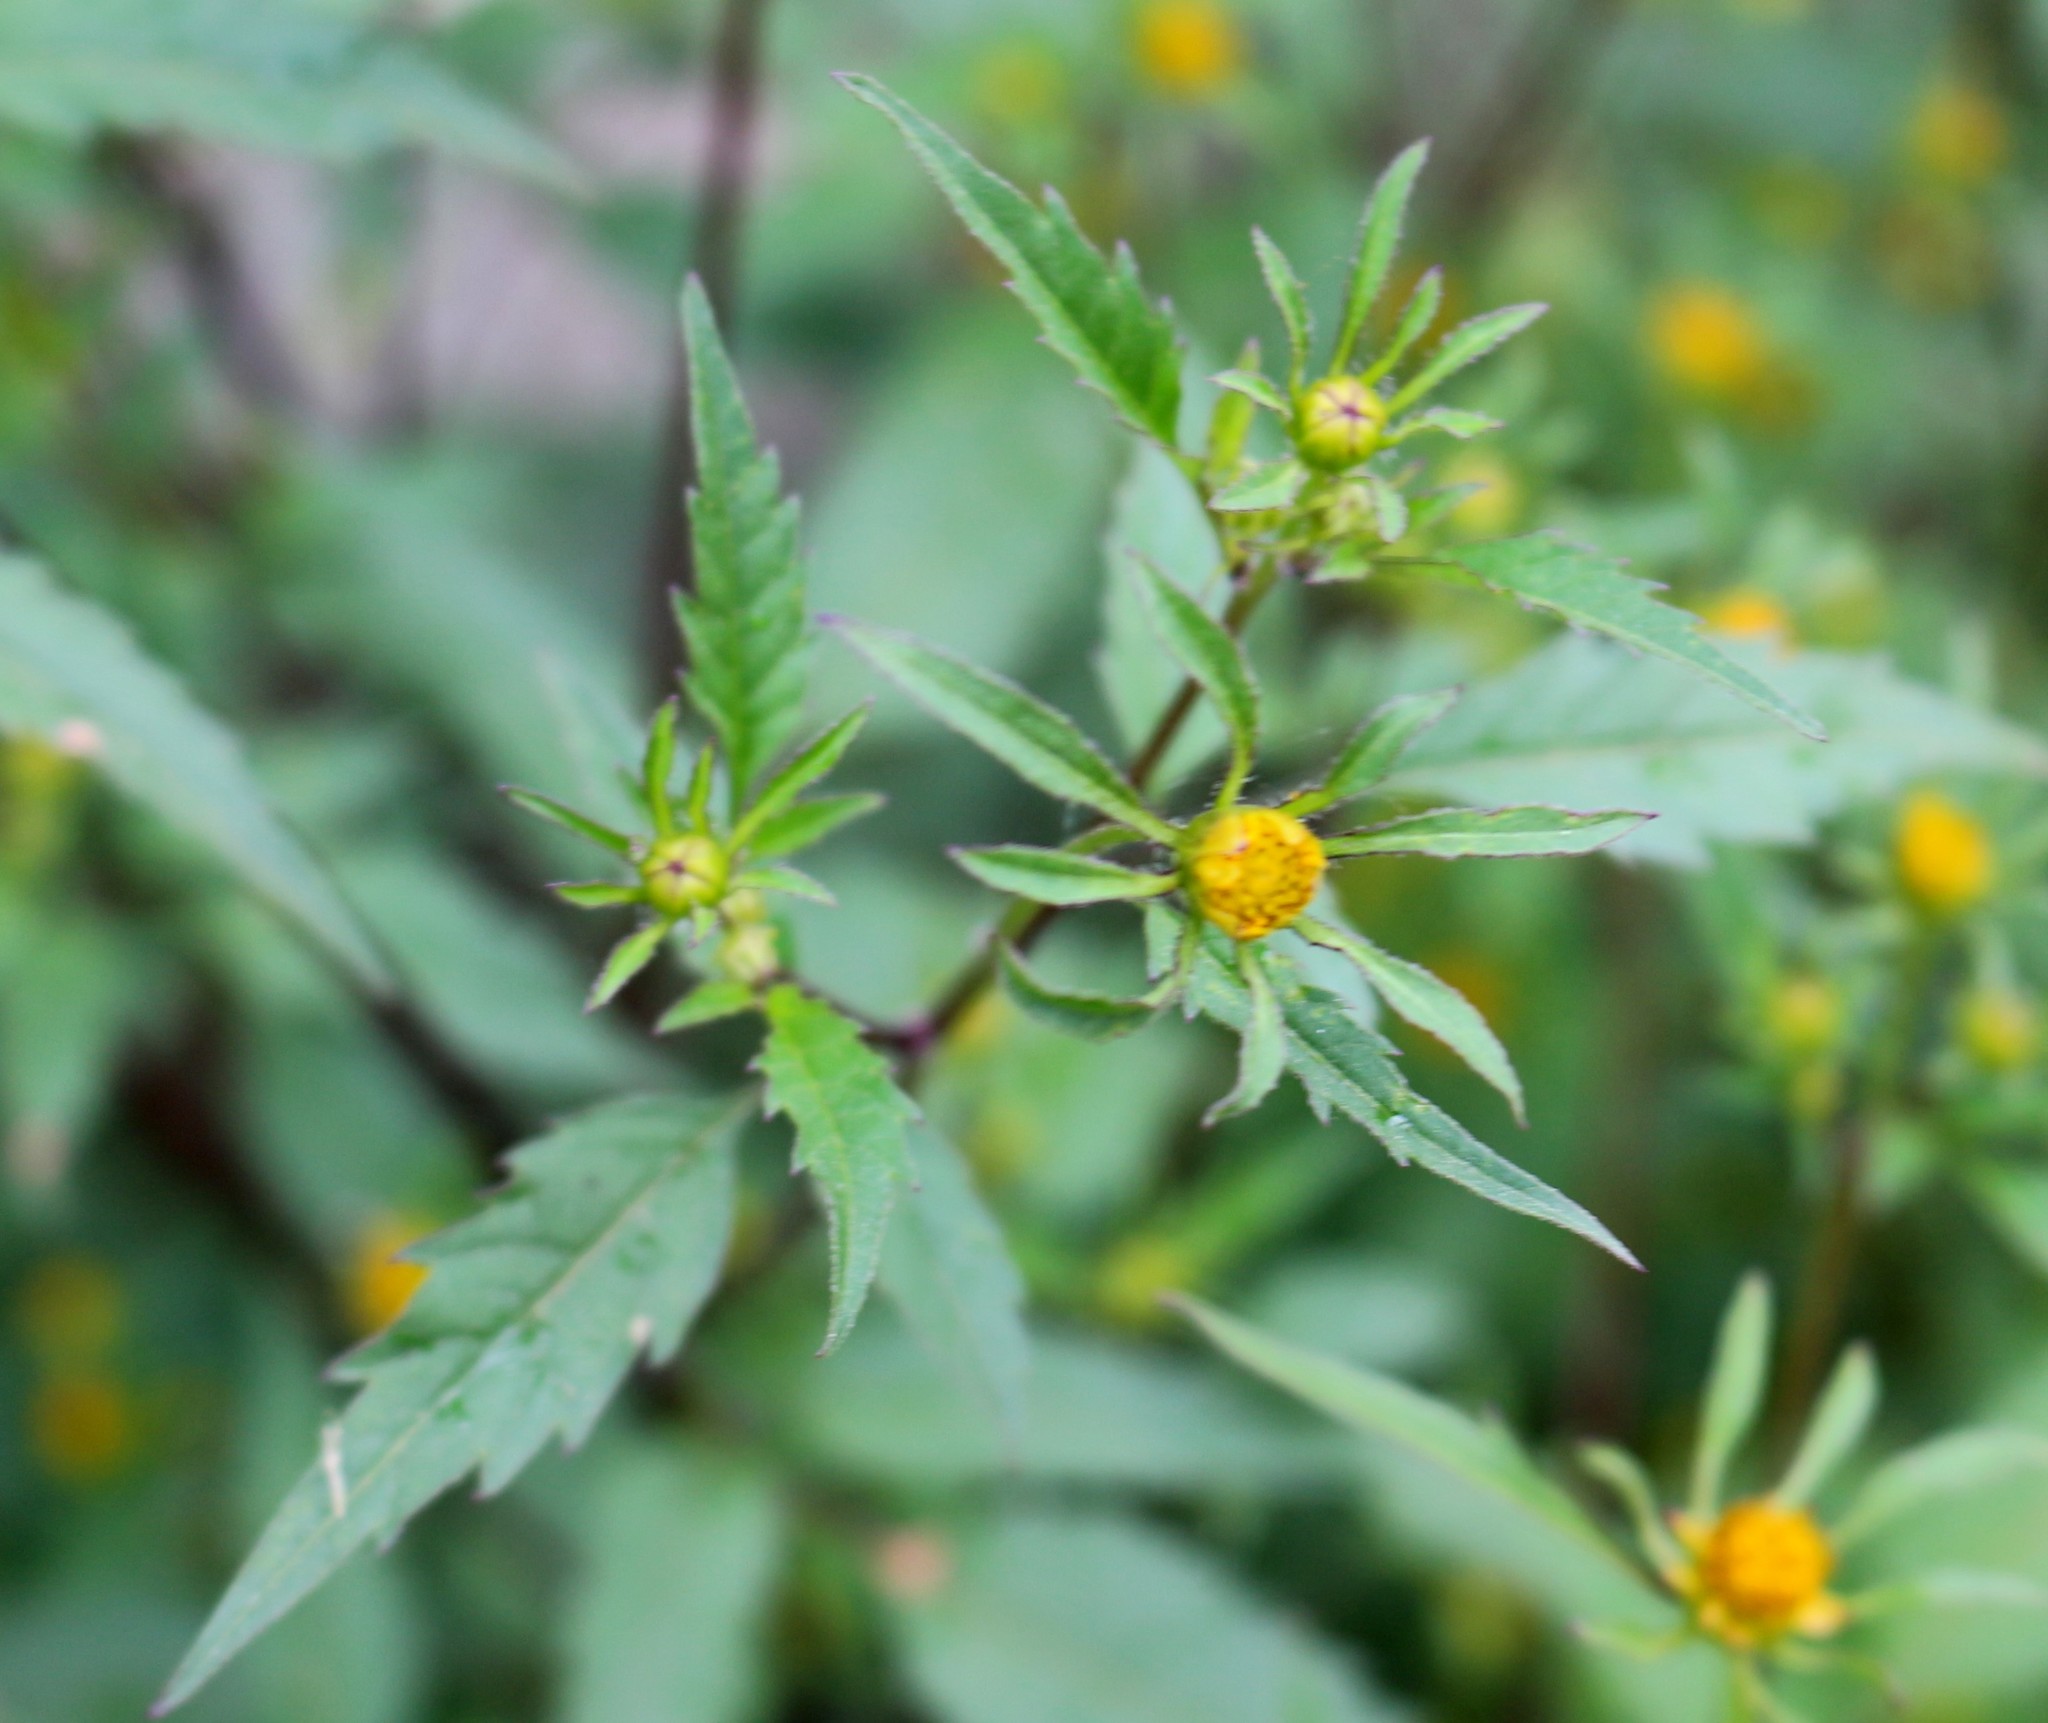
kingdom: Plantae
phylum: Tracheophyta
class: Magnoliopsida
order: Asterales
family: Asteraceae
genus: Bidens
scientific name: Bidens frondosa
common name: Beggarticks
